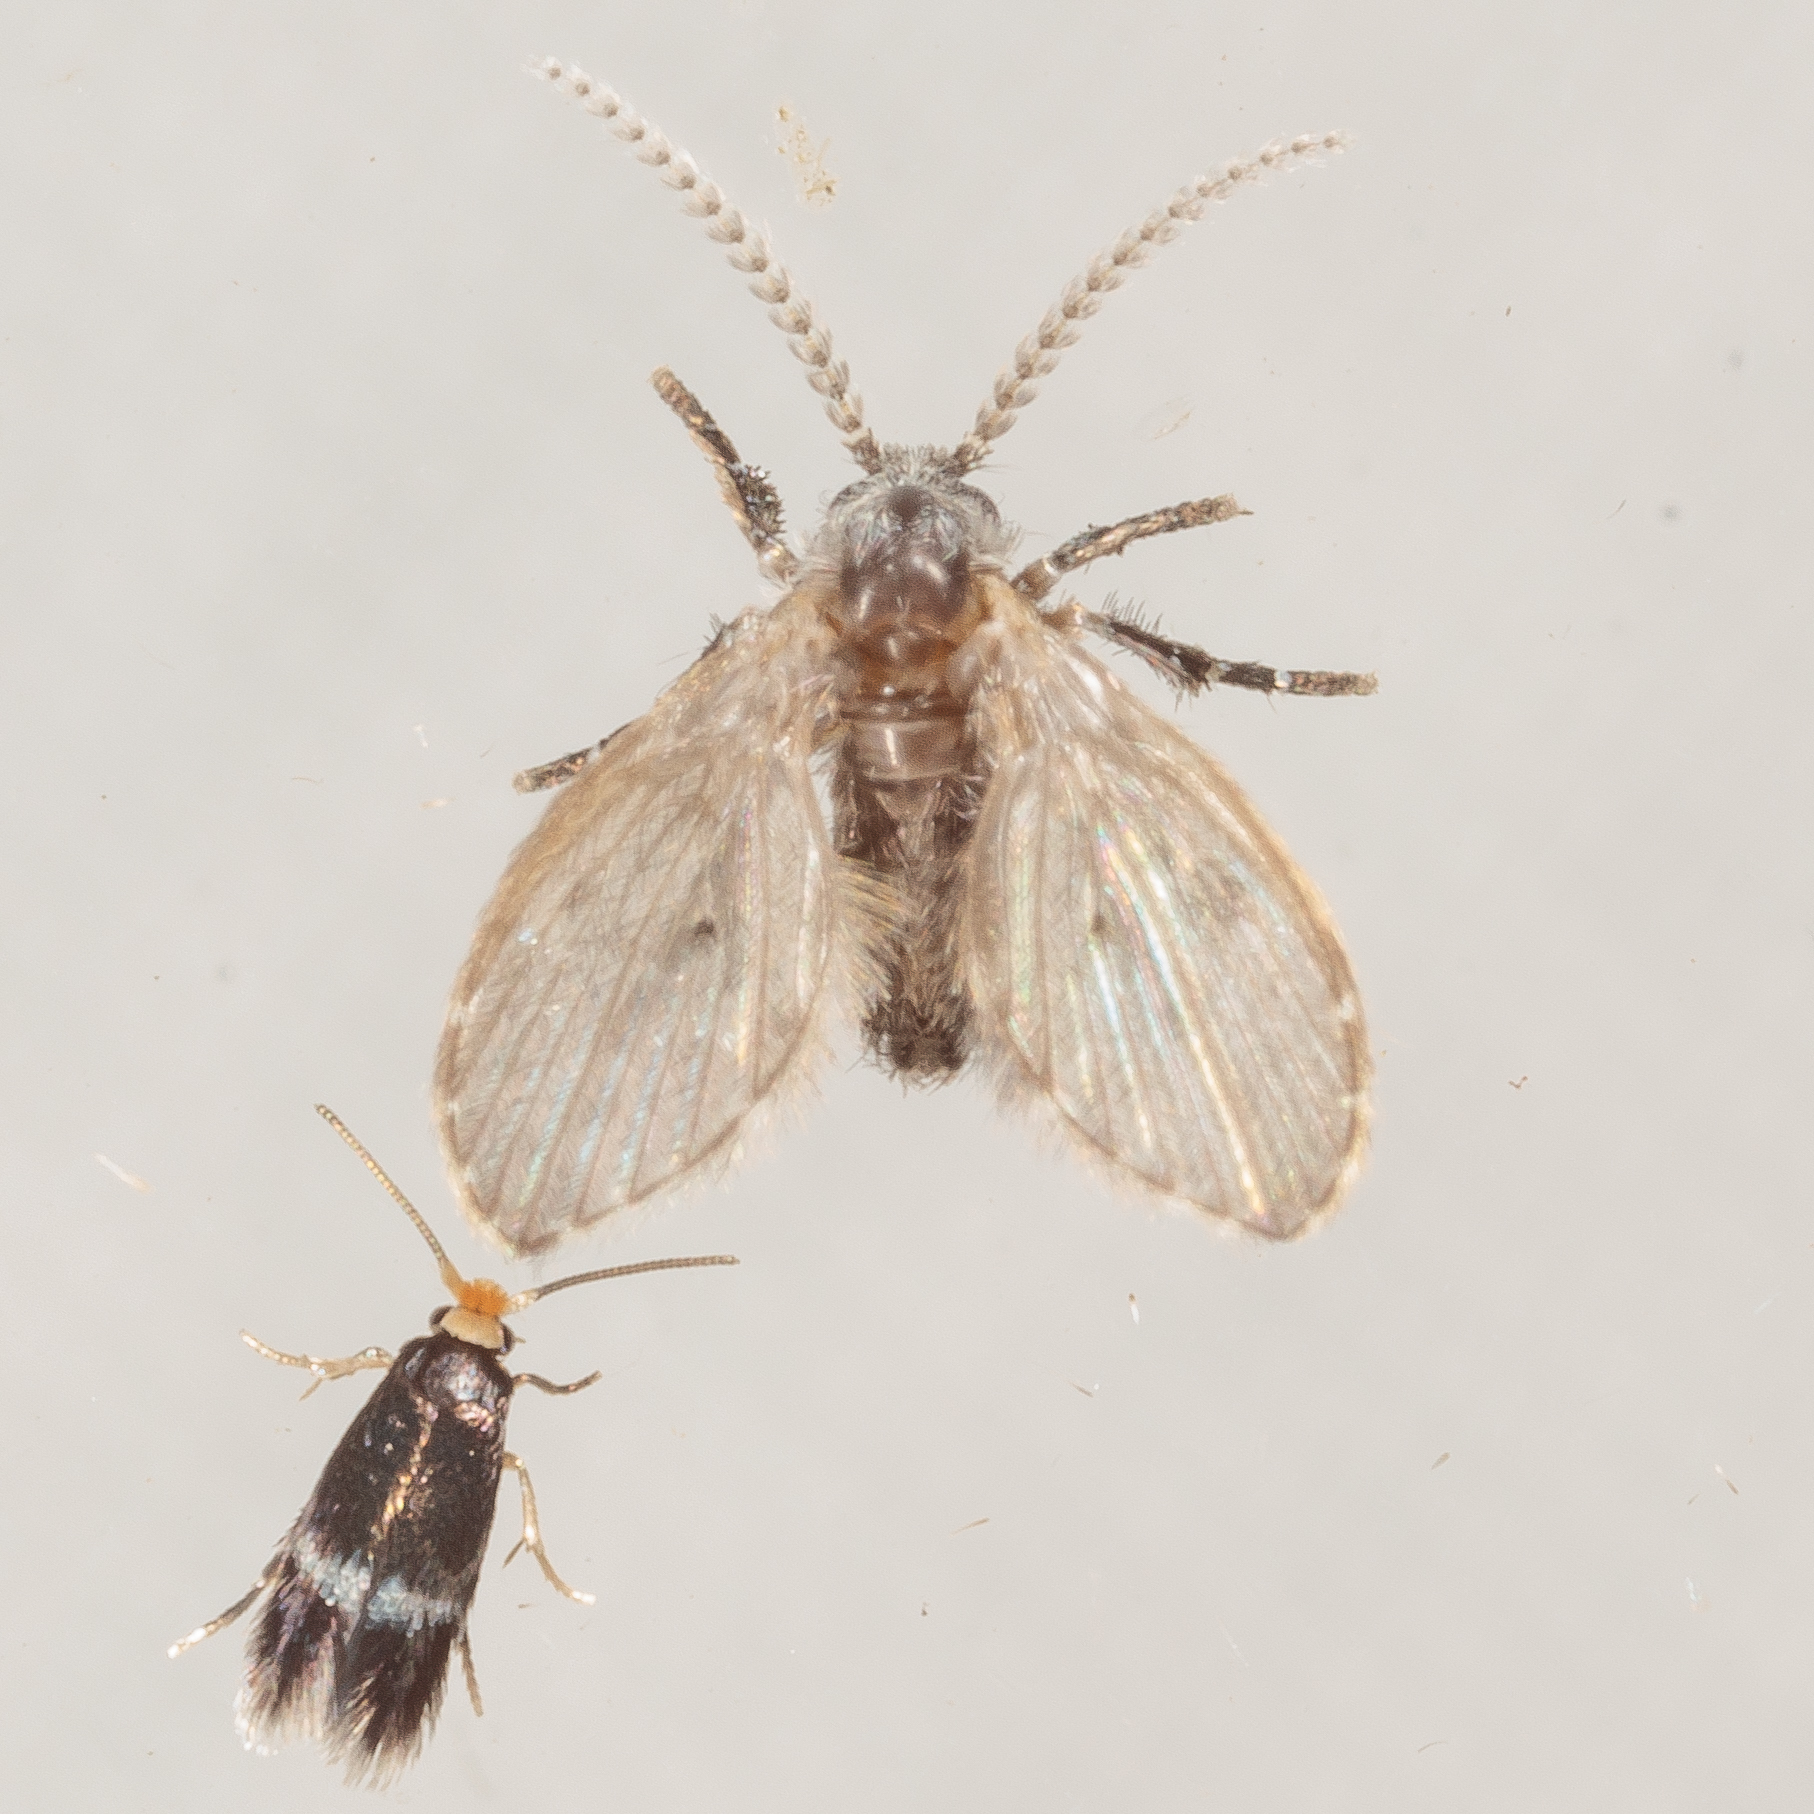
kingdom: Animalia
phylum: Arthropoda
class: Insecta
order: Diptera
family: Psychodidae
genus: Clogmia
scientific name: Clogmia albipunctatus
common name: White-spotted moth fly
